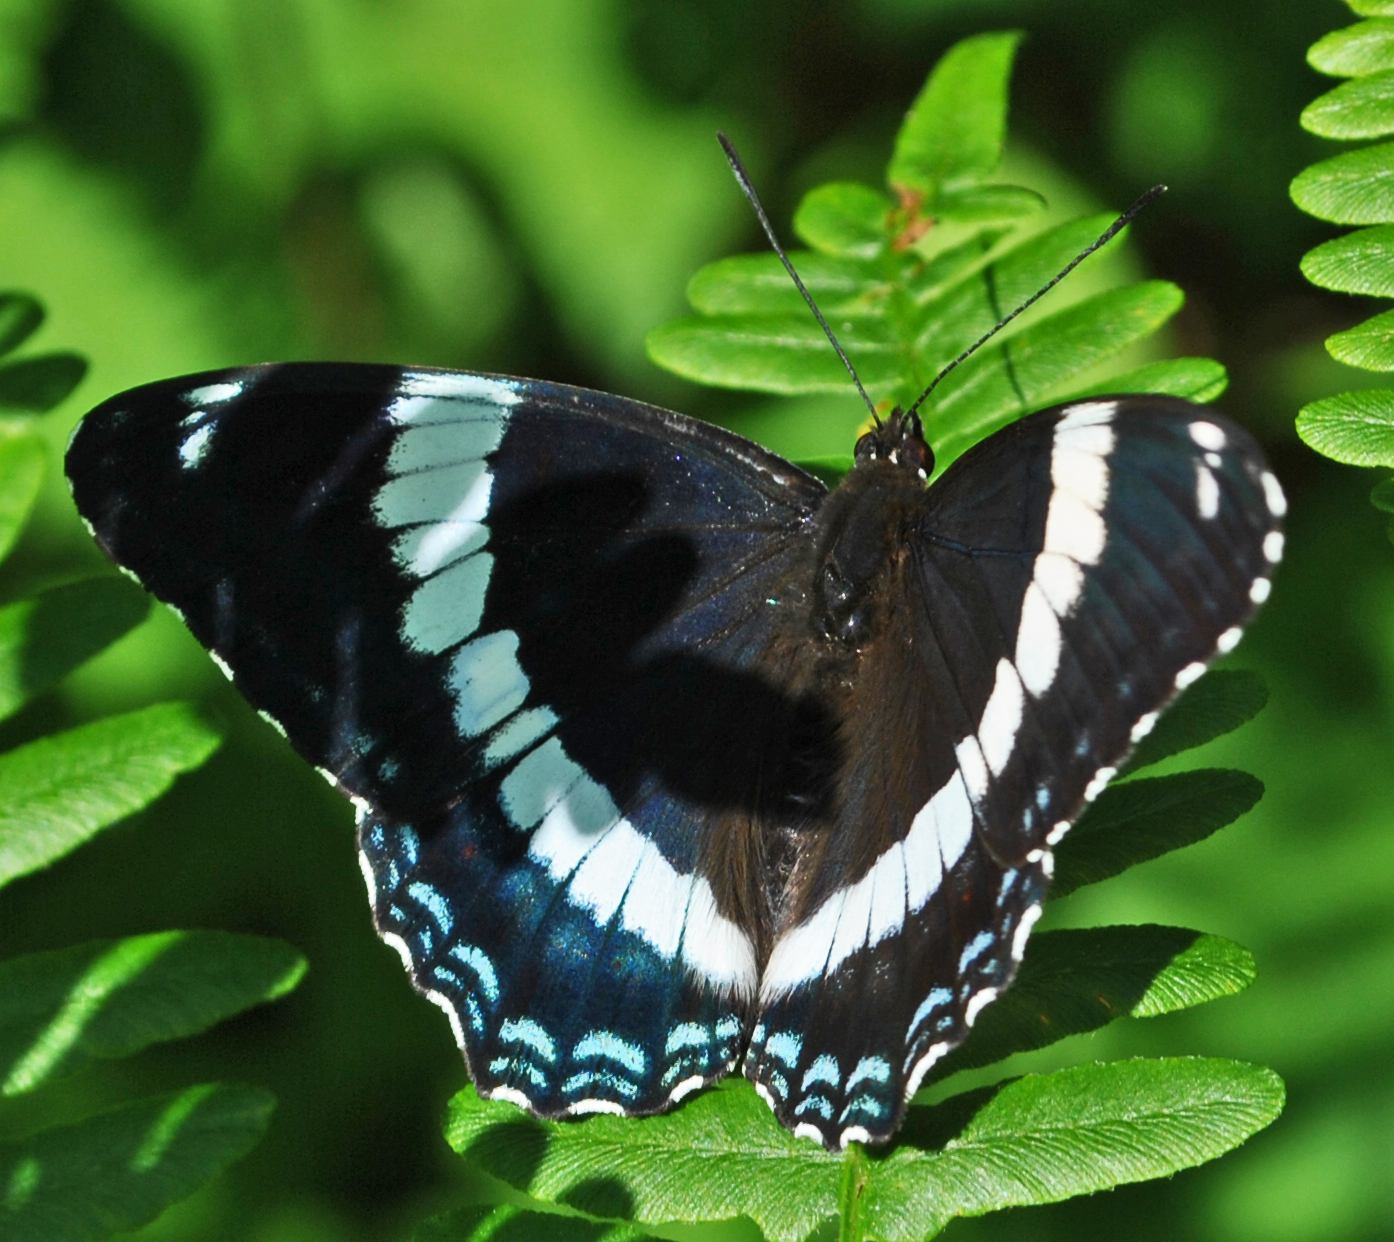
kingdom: Animalia
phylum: Arthropoda
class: Insecta
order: Lepidoptera
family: Nymphalidae
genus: Limenitis
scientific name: Limenitis arthemis
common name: Red-spotted admiral
